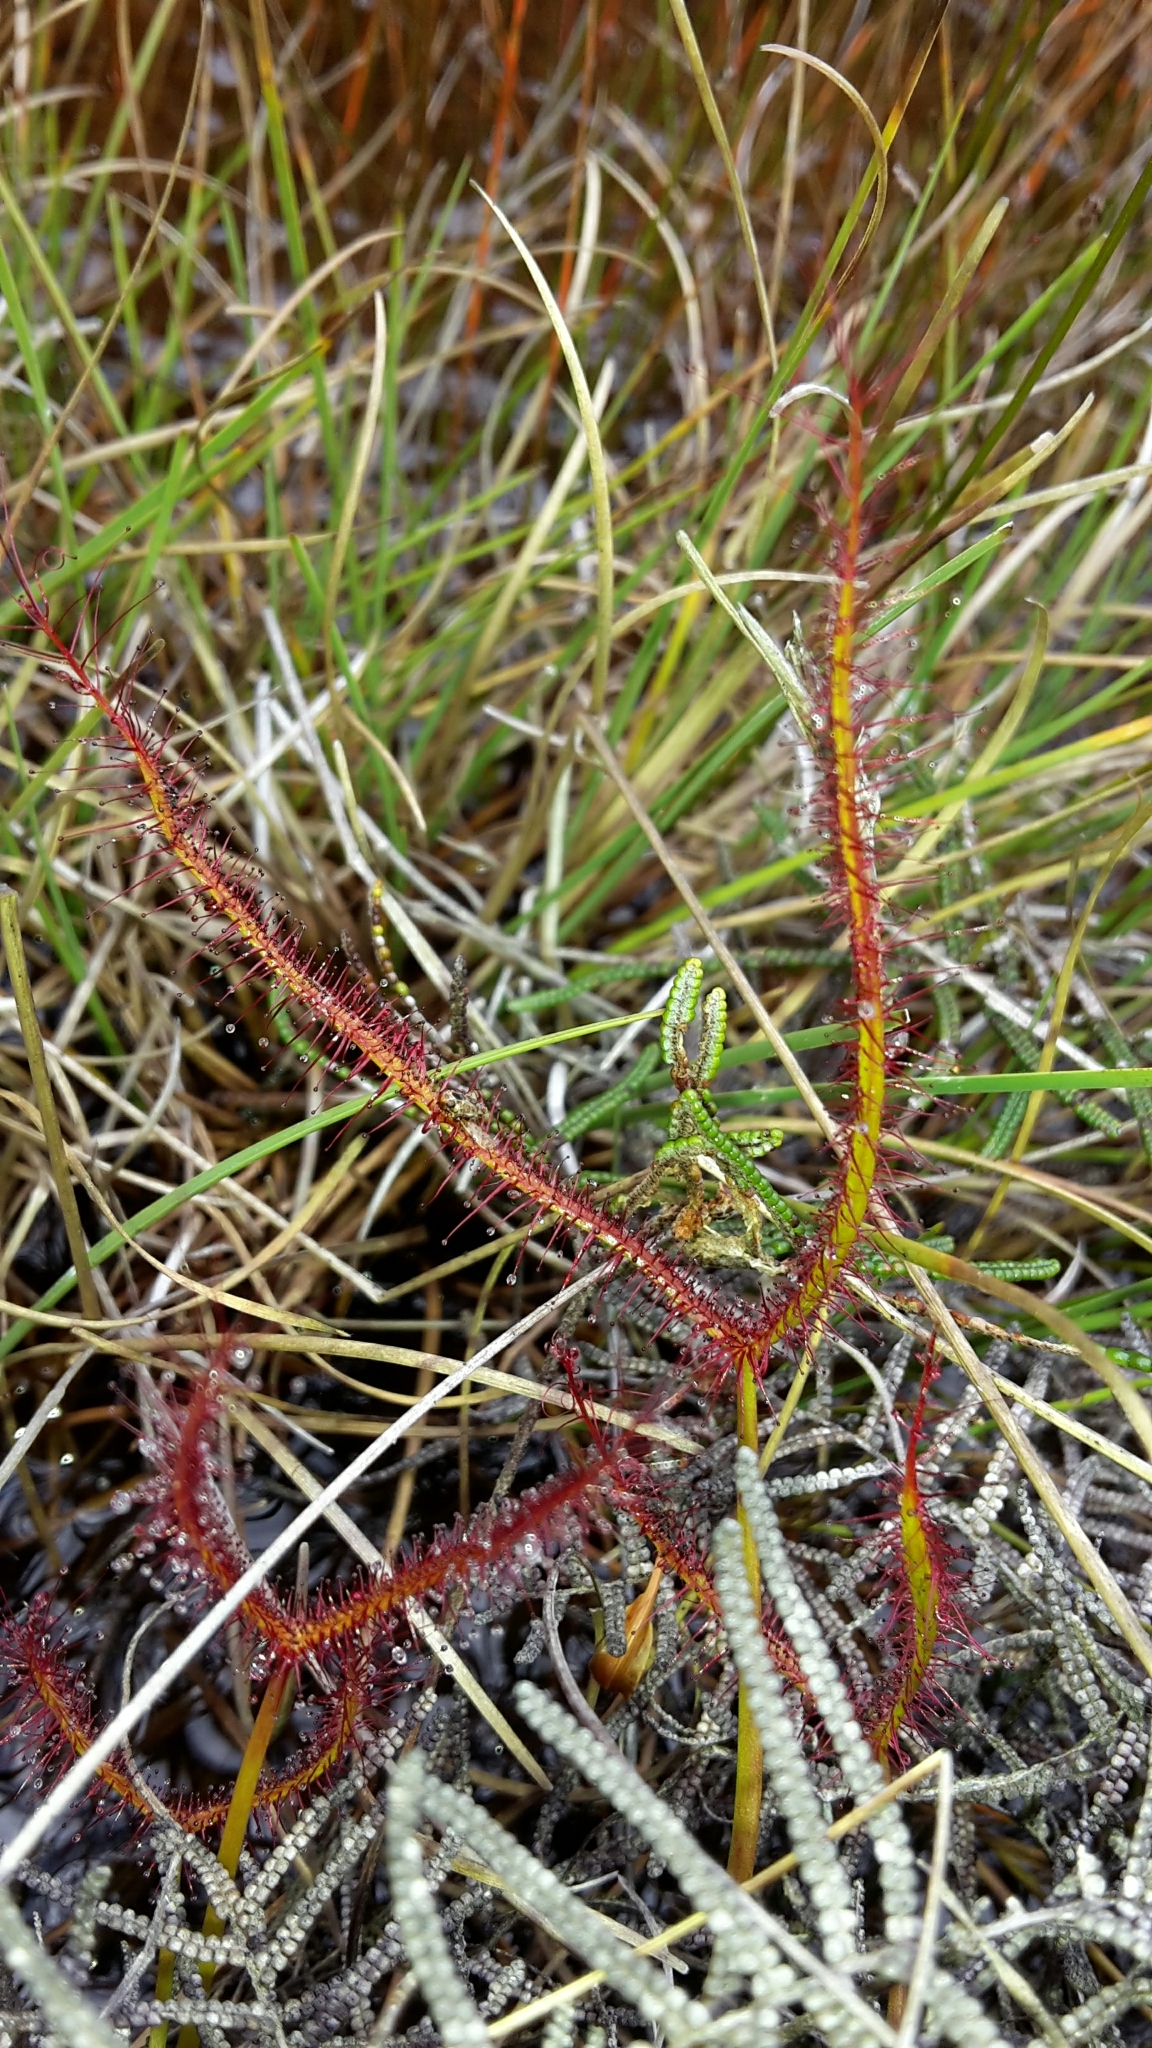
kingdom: Plantae
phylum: Tracheophyta
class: Magnoliopsida
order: Caryophyllales
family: Droseraceae
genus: Drosera
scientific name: Drosera binata
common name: Forked sundew
